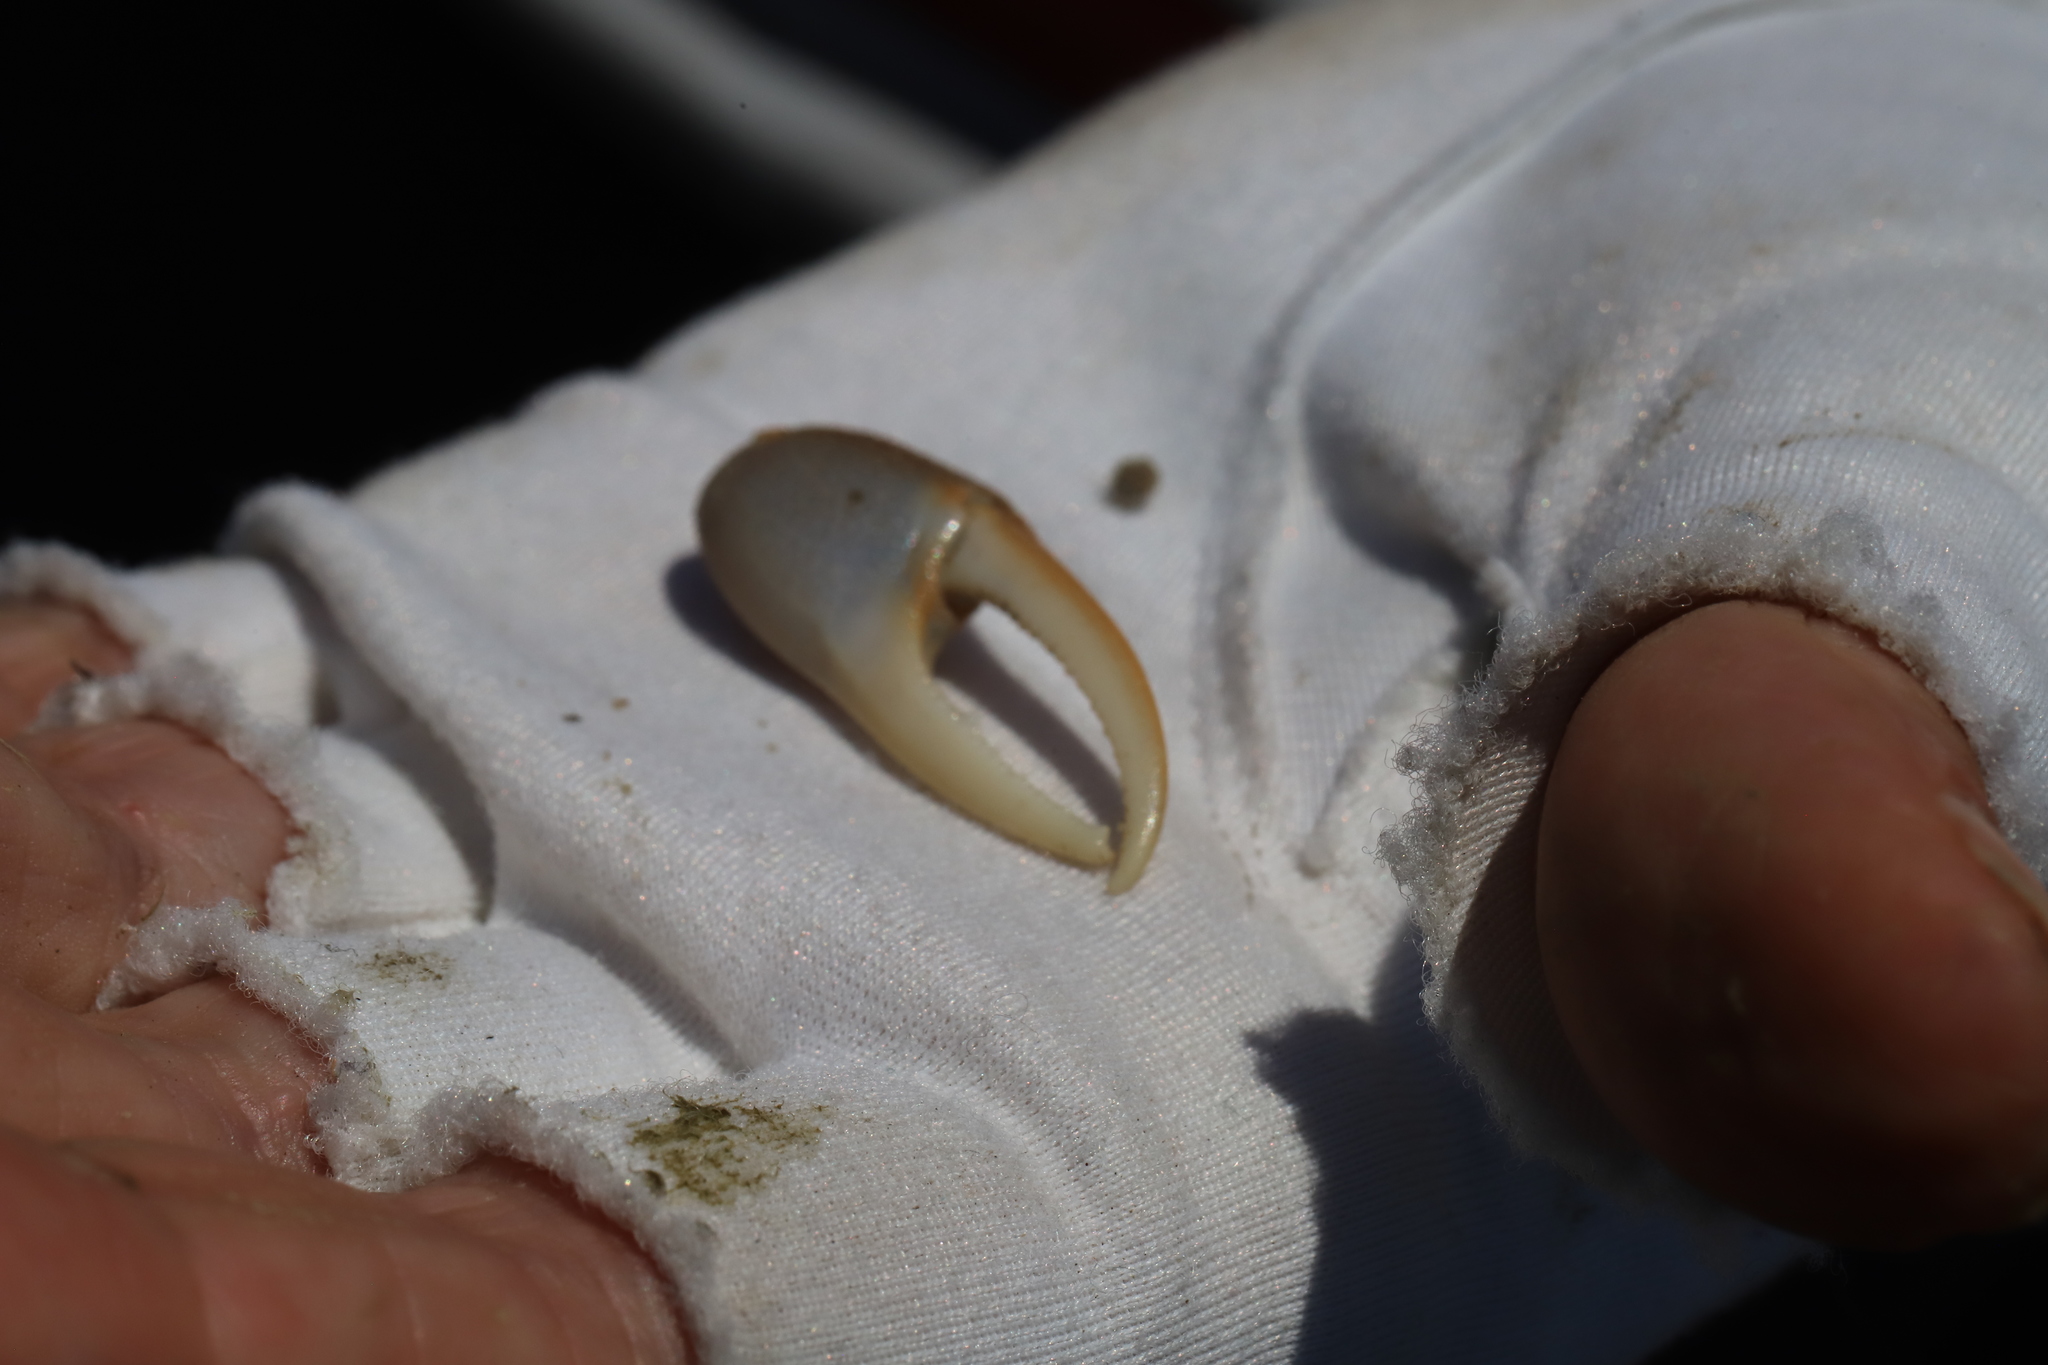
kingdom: Animalia
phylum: Arthropoda
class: Malacostraca
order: Decapoda
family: Ocypodidae
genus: Leptuca
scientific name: Leptuca pugilator
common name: Atlantic sand fiddler crab
